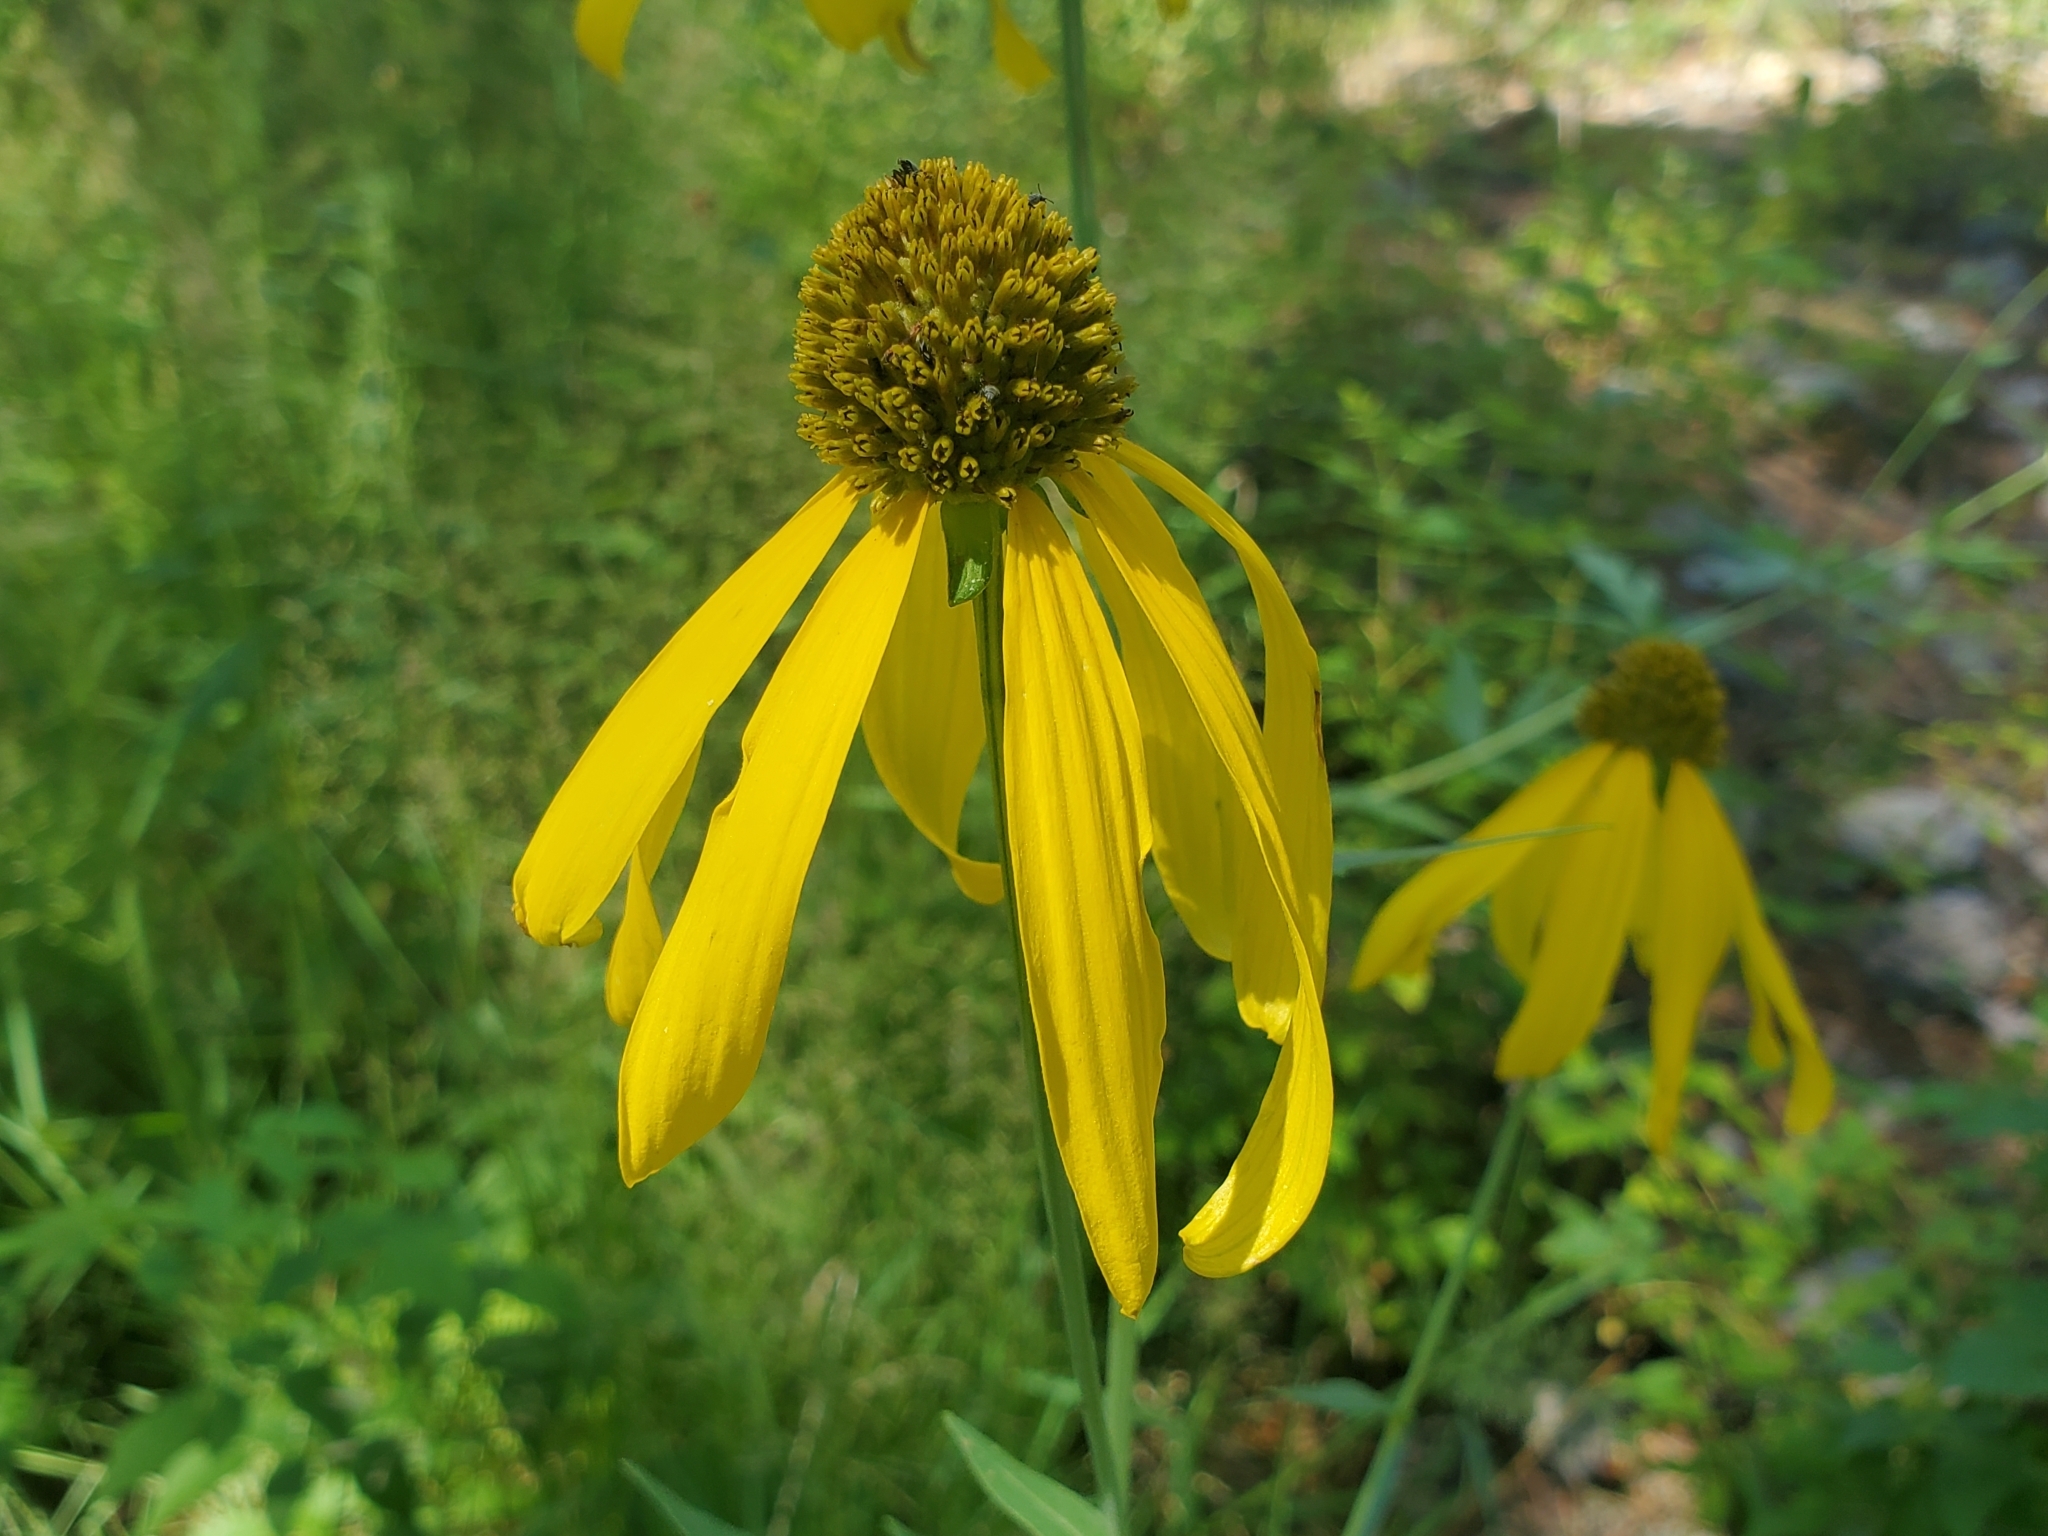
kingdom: Plantae
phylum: Tracheophyta
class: Magnoliopsida
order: Asterales
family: Asteraceae
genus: Rudbeckia
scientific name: Rudbeckia laciniata
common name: Coneflower
